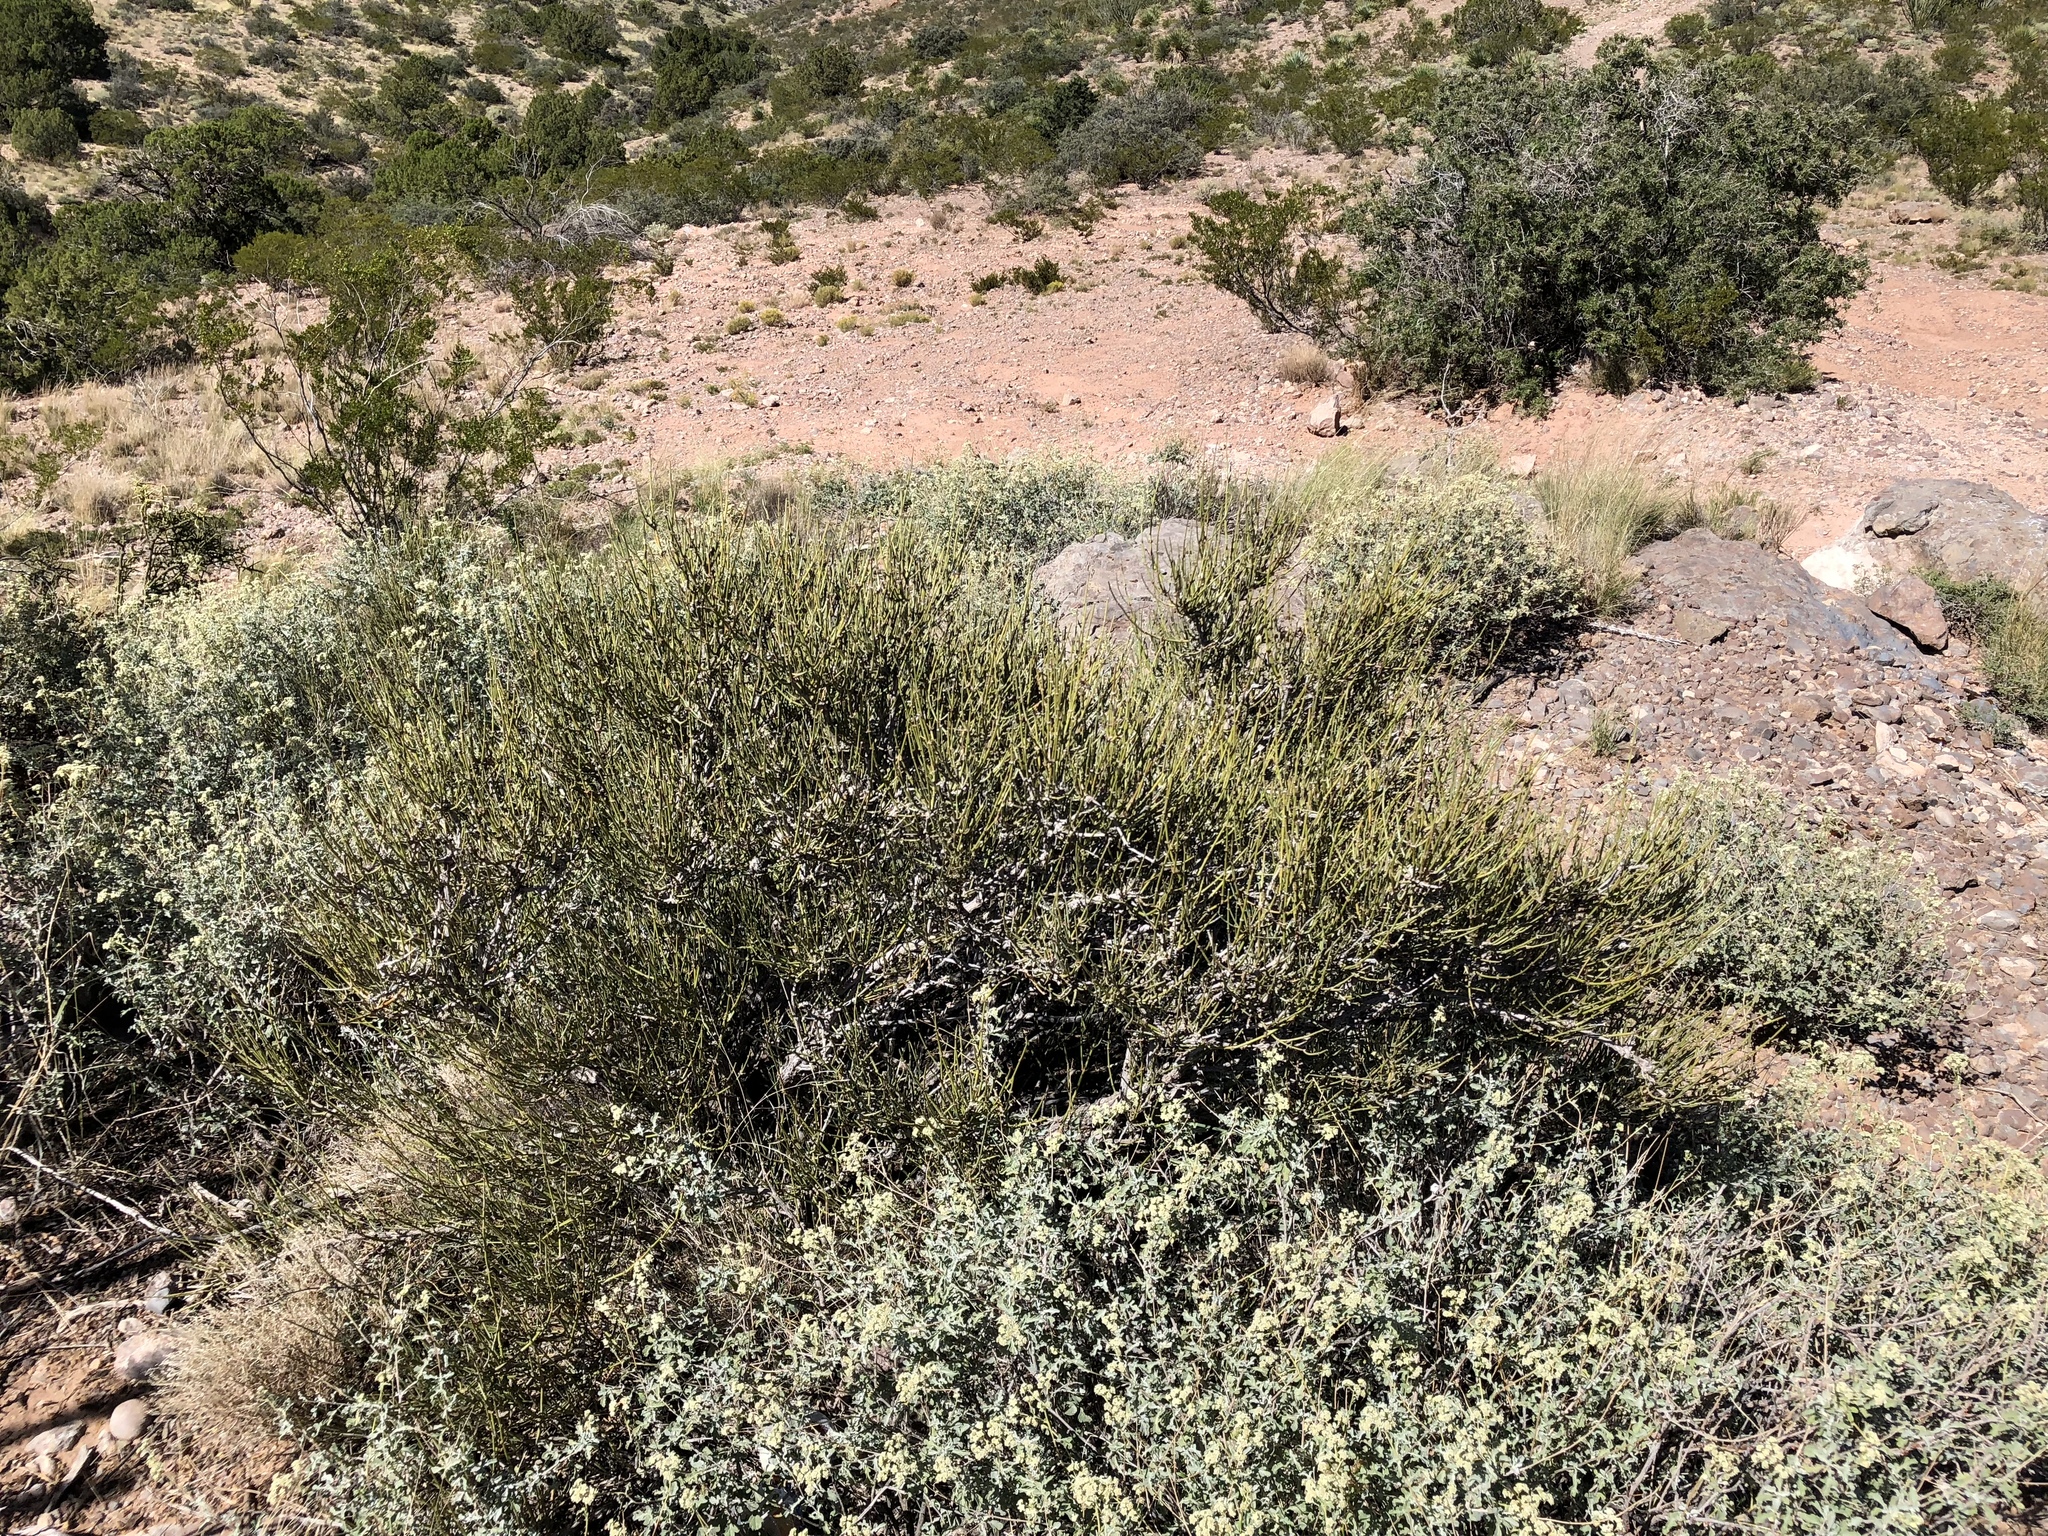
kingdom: Plantae
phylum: Tracheophyta
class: Gnetopsida
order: Ephedrales
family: Ephedraceae
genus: Ephedra
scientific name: Ephedra trifurca
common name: Mexican-tea
